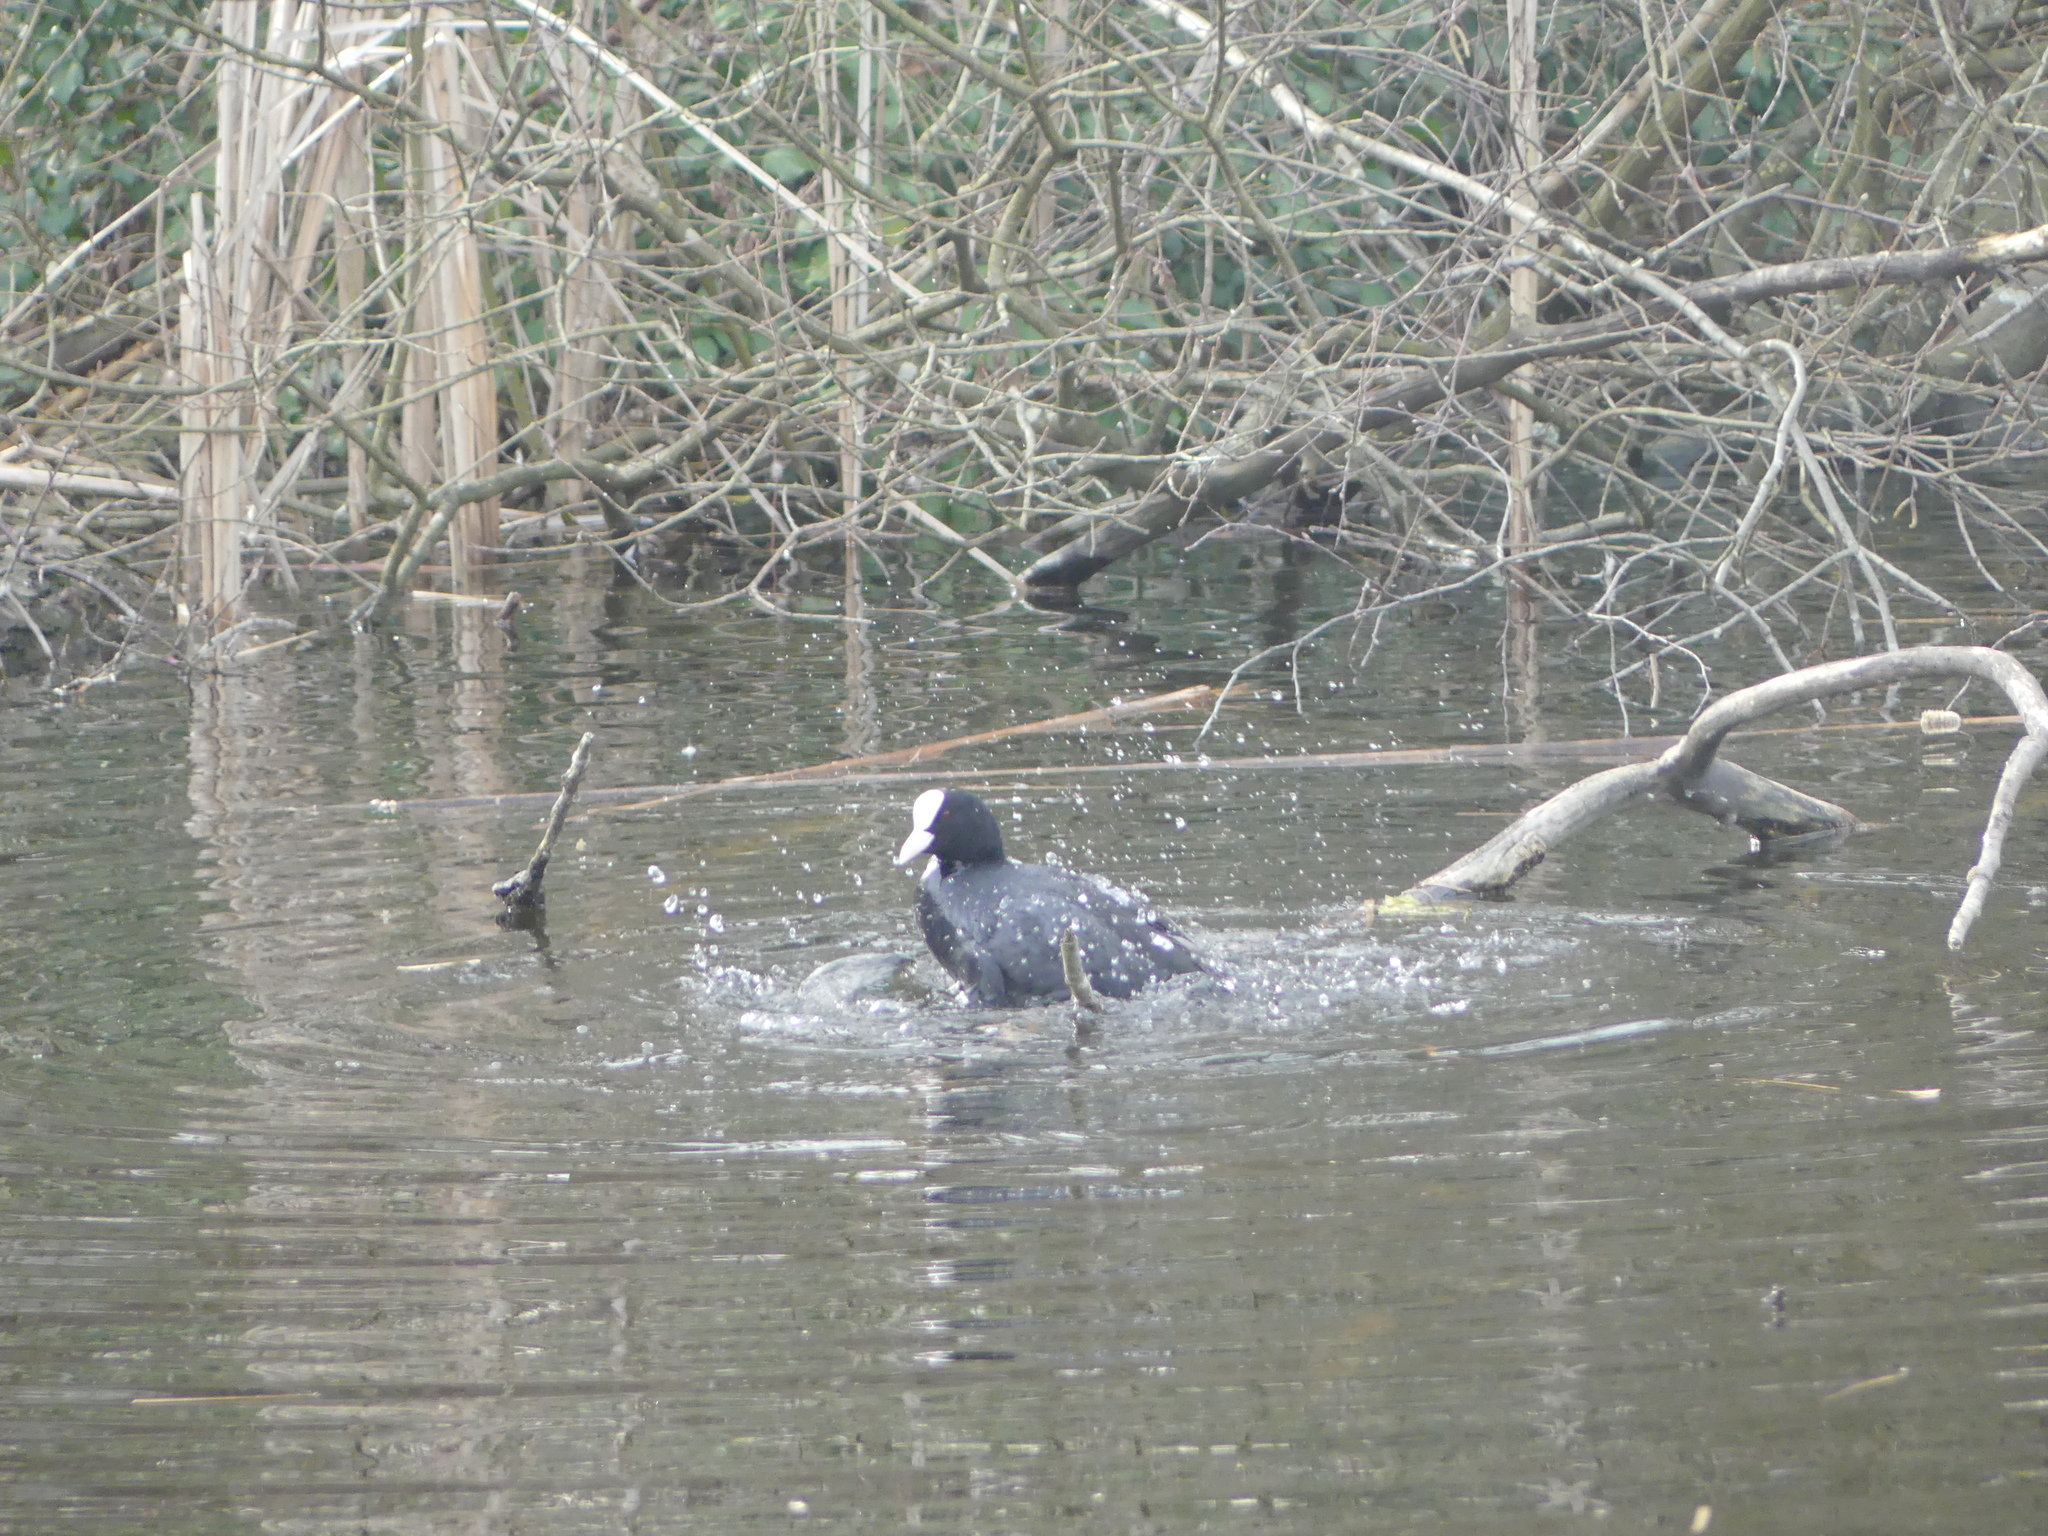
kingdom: Animalia
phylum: Chordata
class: Aves
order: Gruiformes
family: Rallidae
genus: Fulica
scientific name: Fulica atra
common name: Eurasian coot
